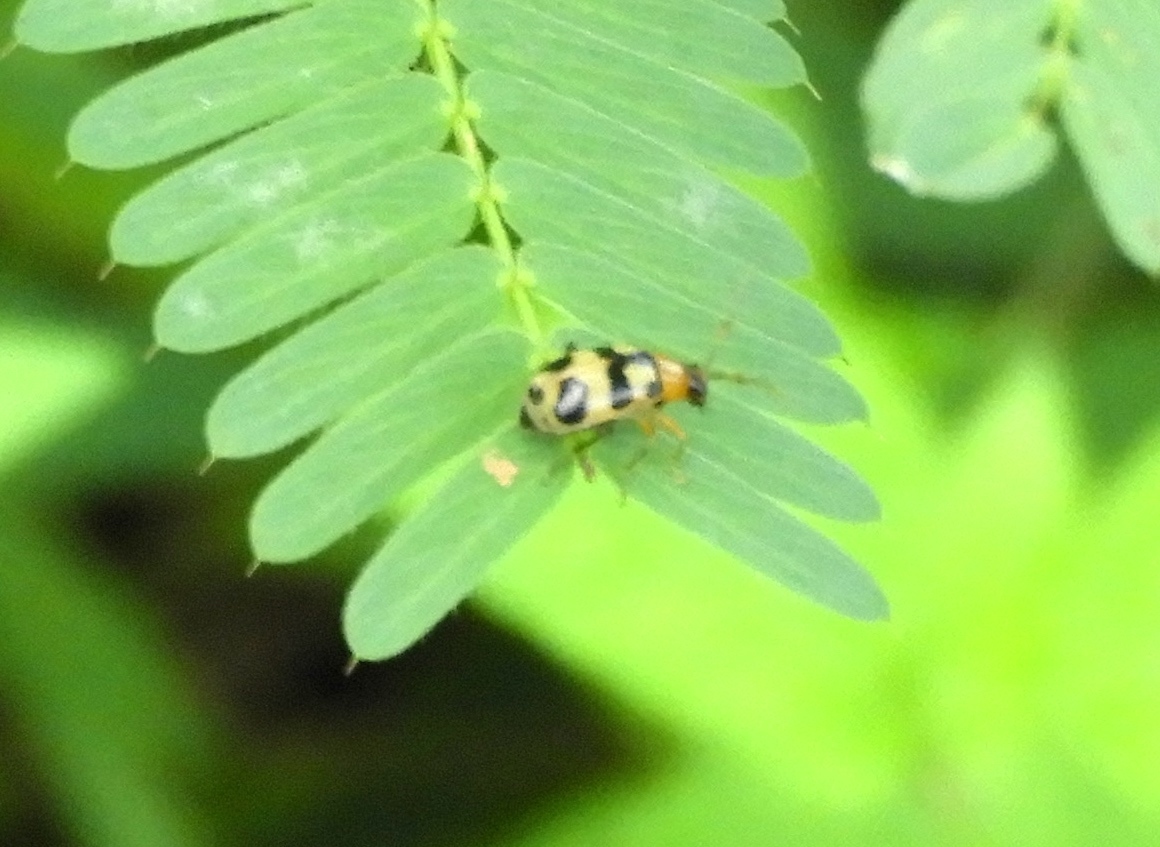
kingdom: Animalia
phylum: Arthropoda
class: Insecta
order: Coleoptera
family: Chrysomelidae
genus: Cerotoma
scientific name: Cerotoma
